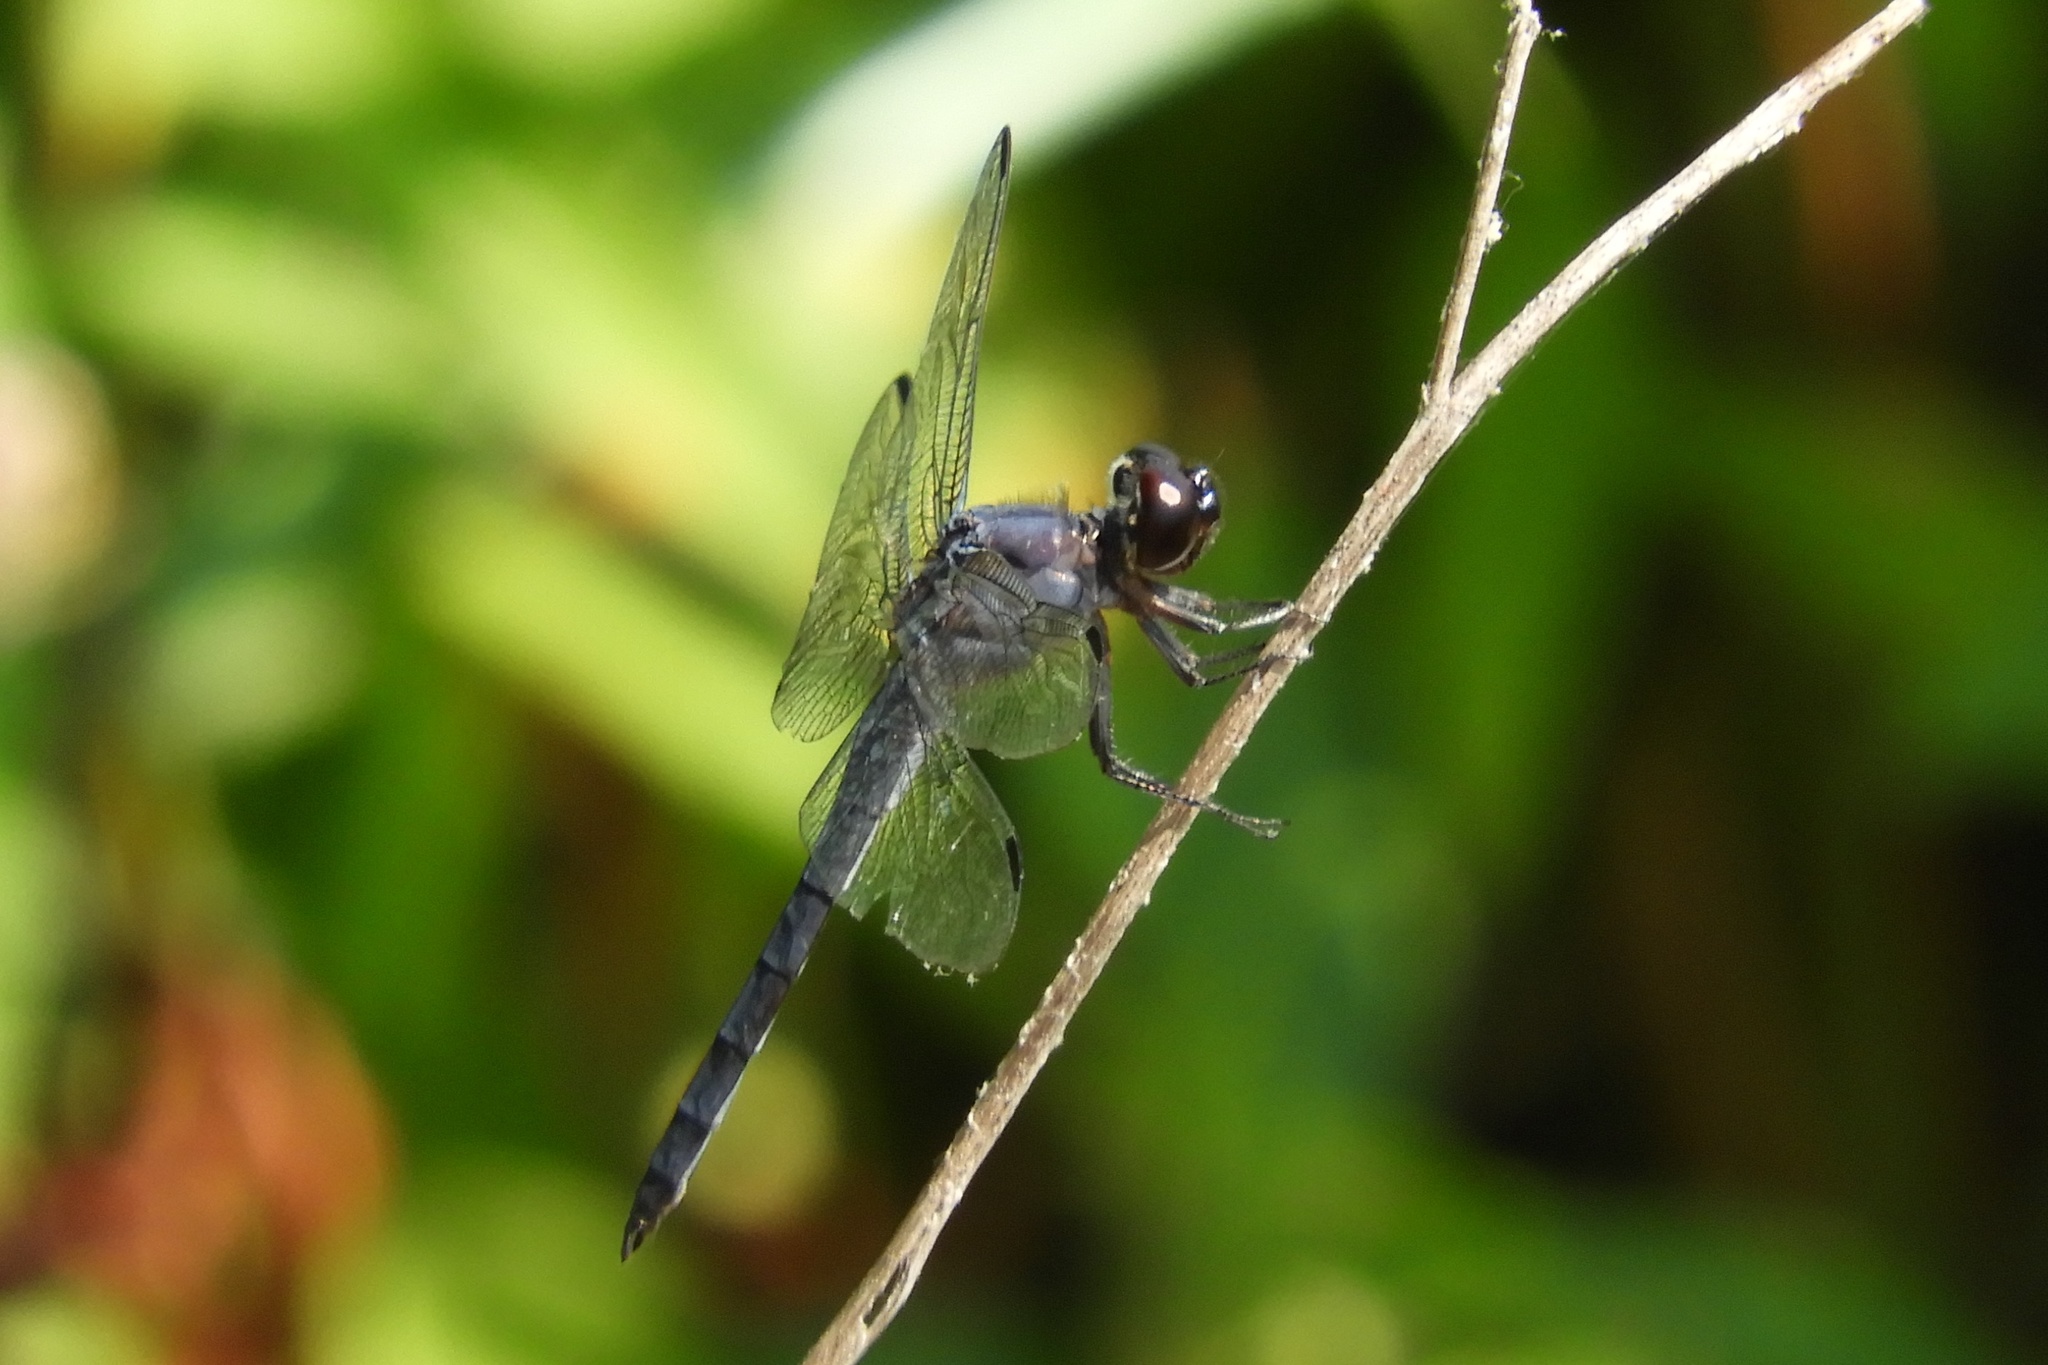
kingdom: Animalia
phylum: Arthropoda
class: Insecta
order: Odonata
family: Libellulidae
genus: Libellula
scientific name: Libellula incesta
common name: Slaty skimmer
